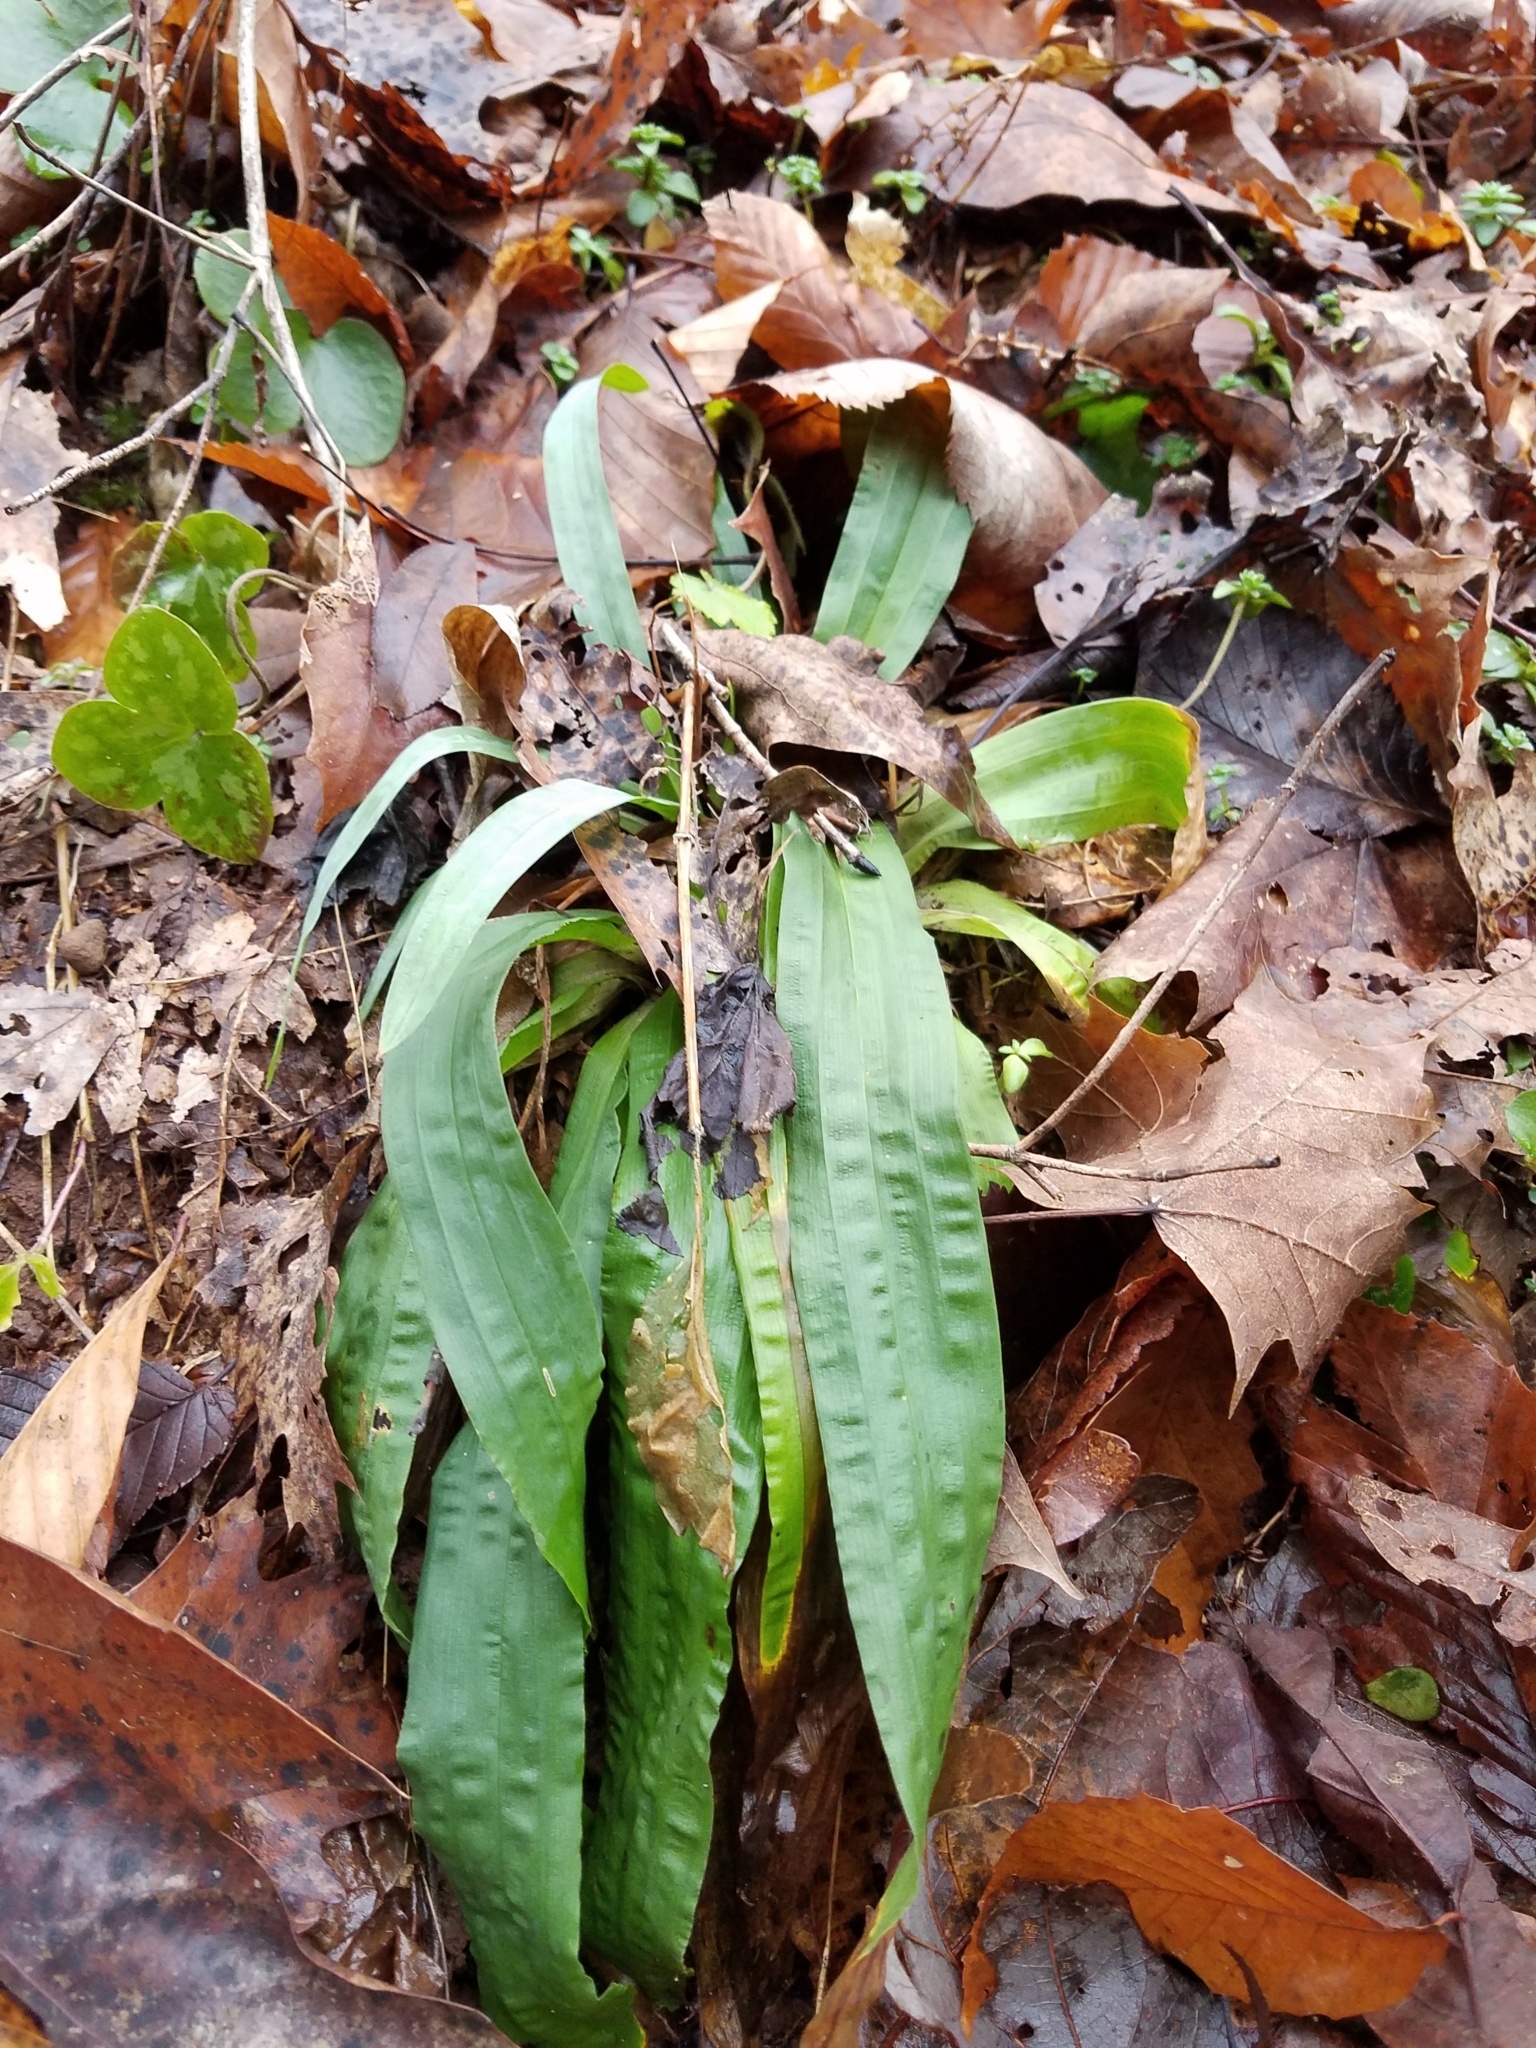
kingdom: Plantae
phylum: Tracheophyta
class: Liliopsida
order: Poales
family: Cyperaceae
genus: Carex
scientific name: Carex plantaginea
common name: Plantain-leaved sedge
